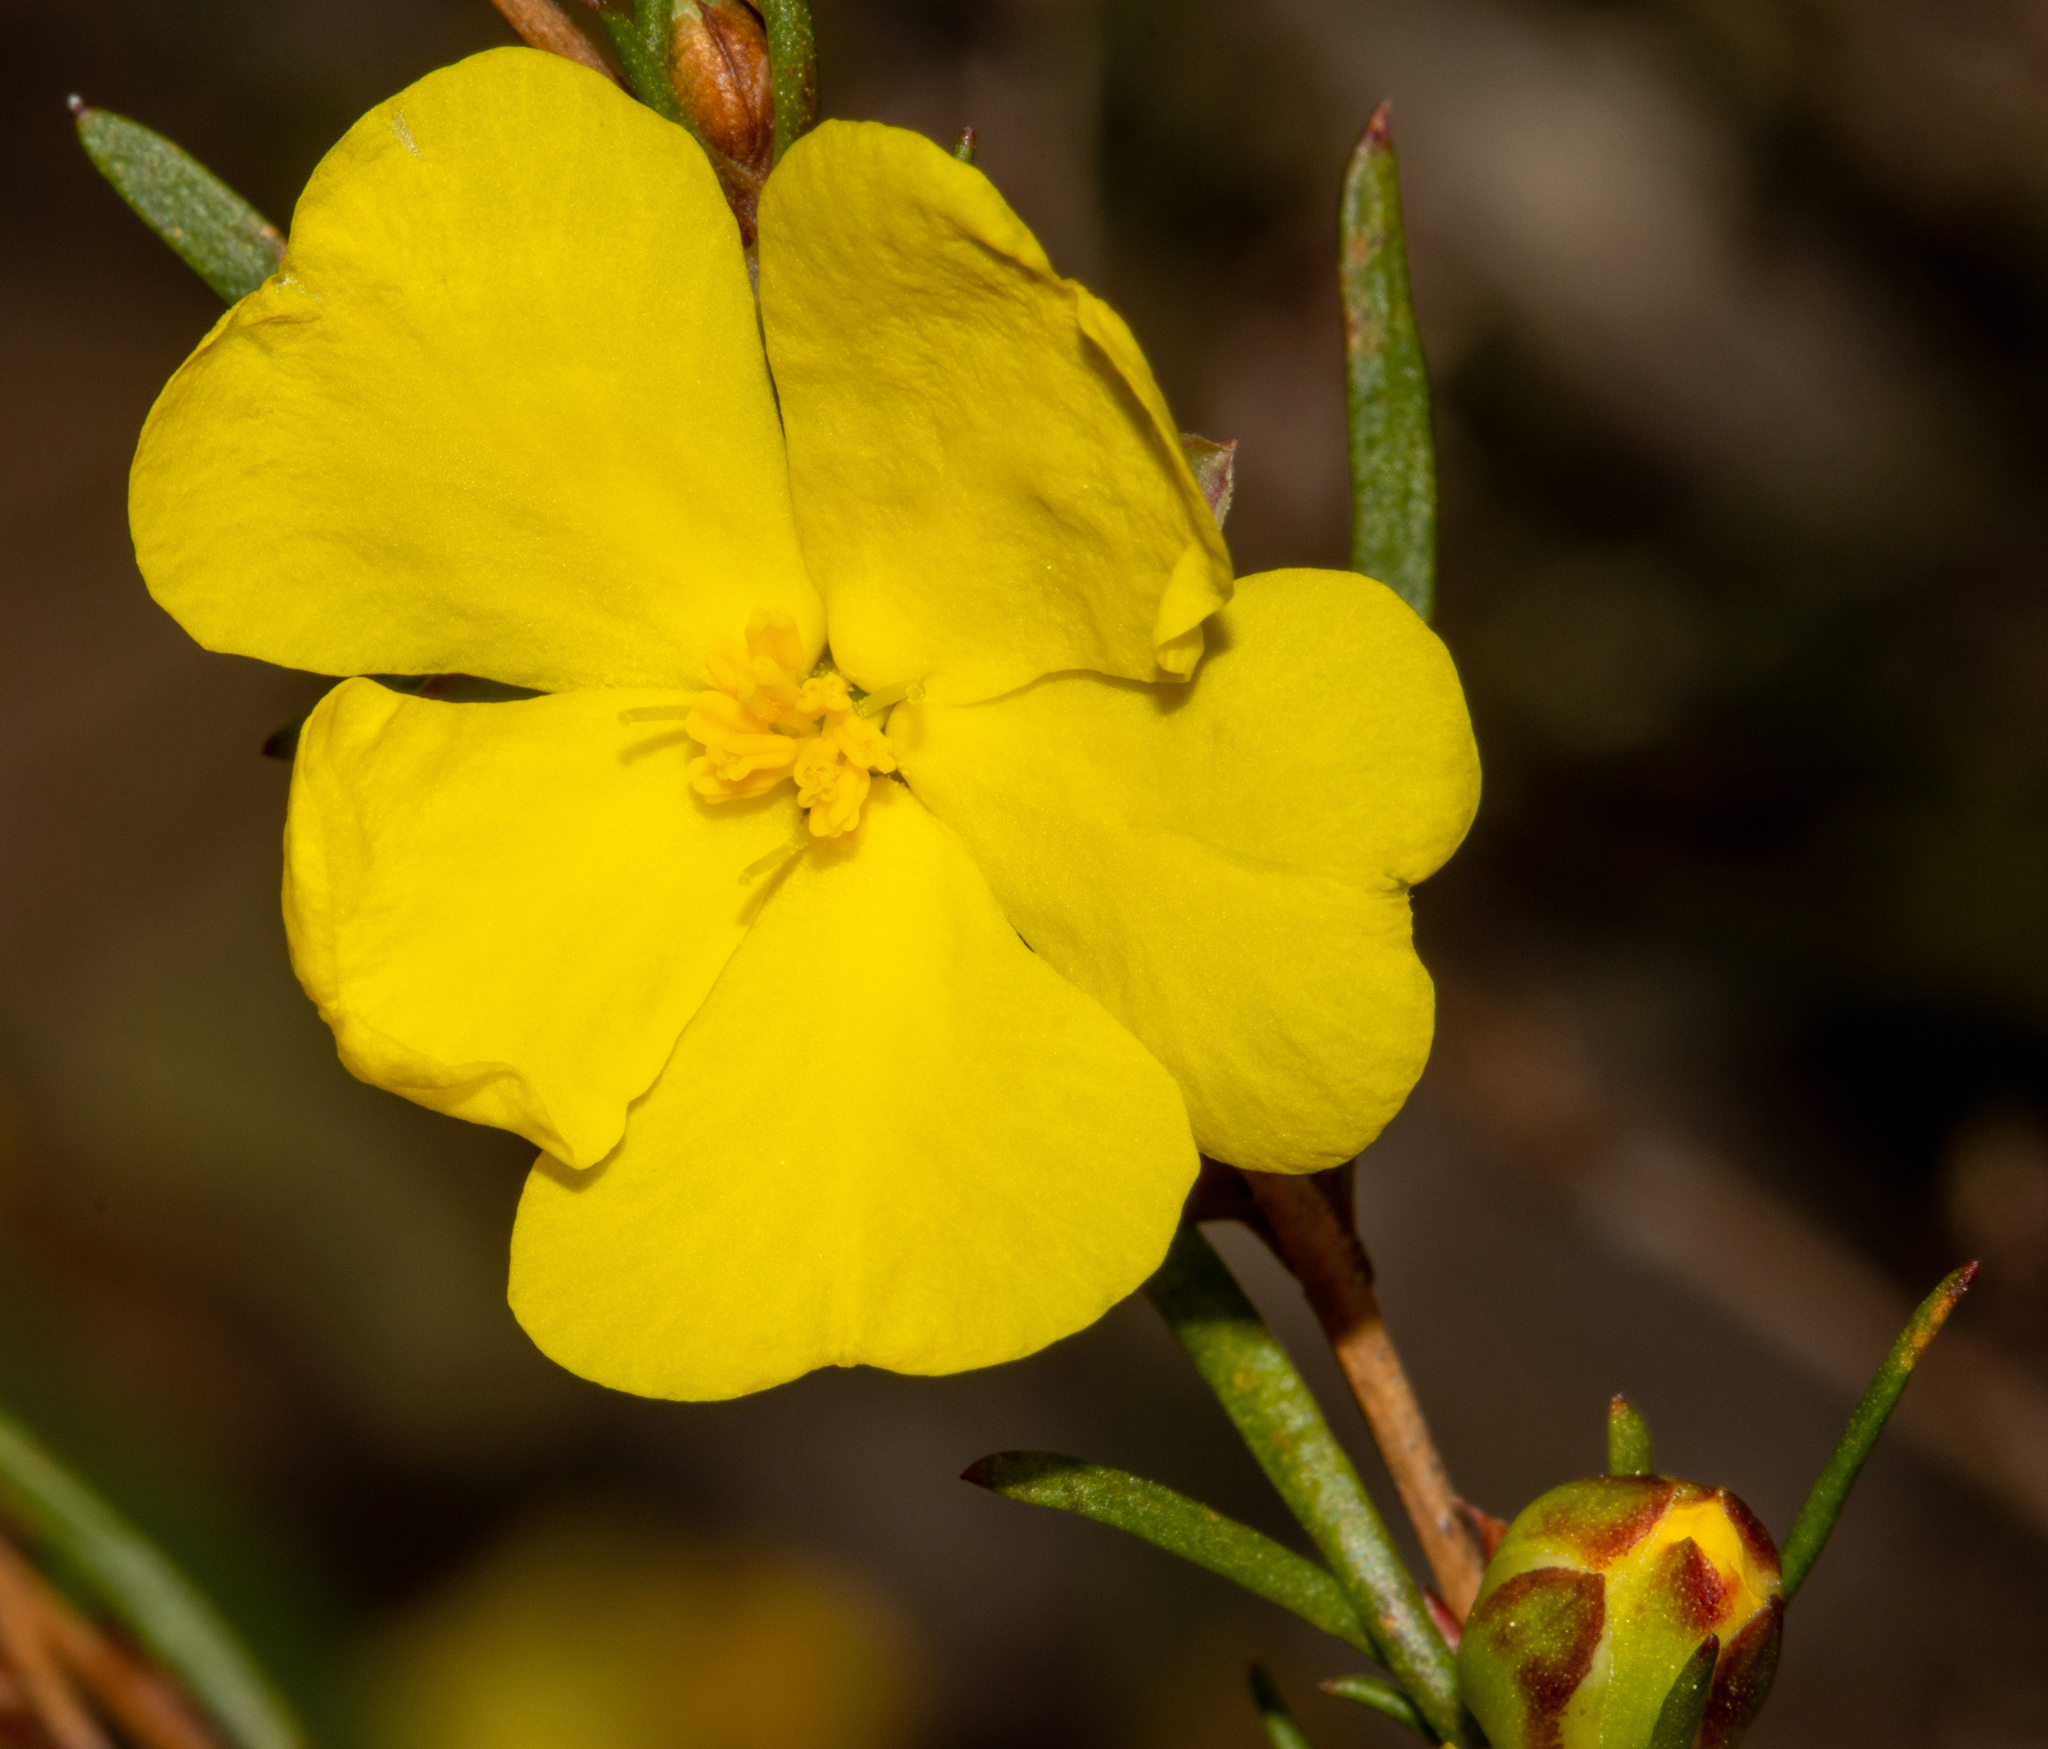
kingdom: Plantae
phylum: Tracheophyta
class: Magnoliopsida
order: Dilleniales
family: Dilleniaceae
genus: Hibbertia
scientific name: Hibbertia virgata
